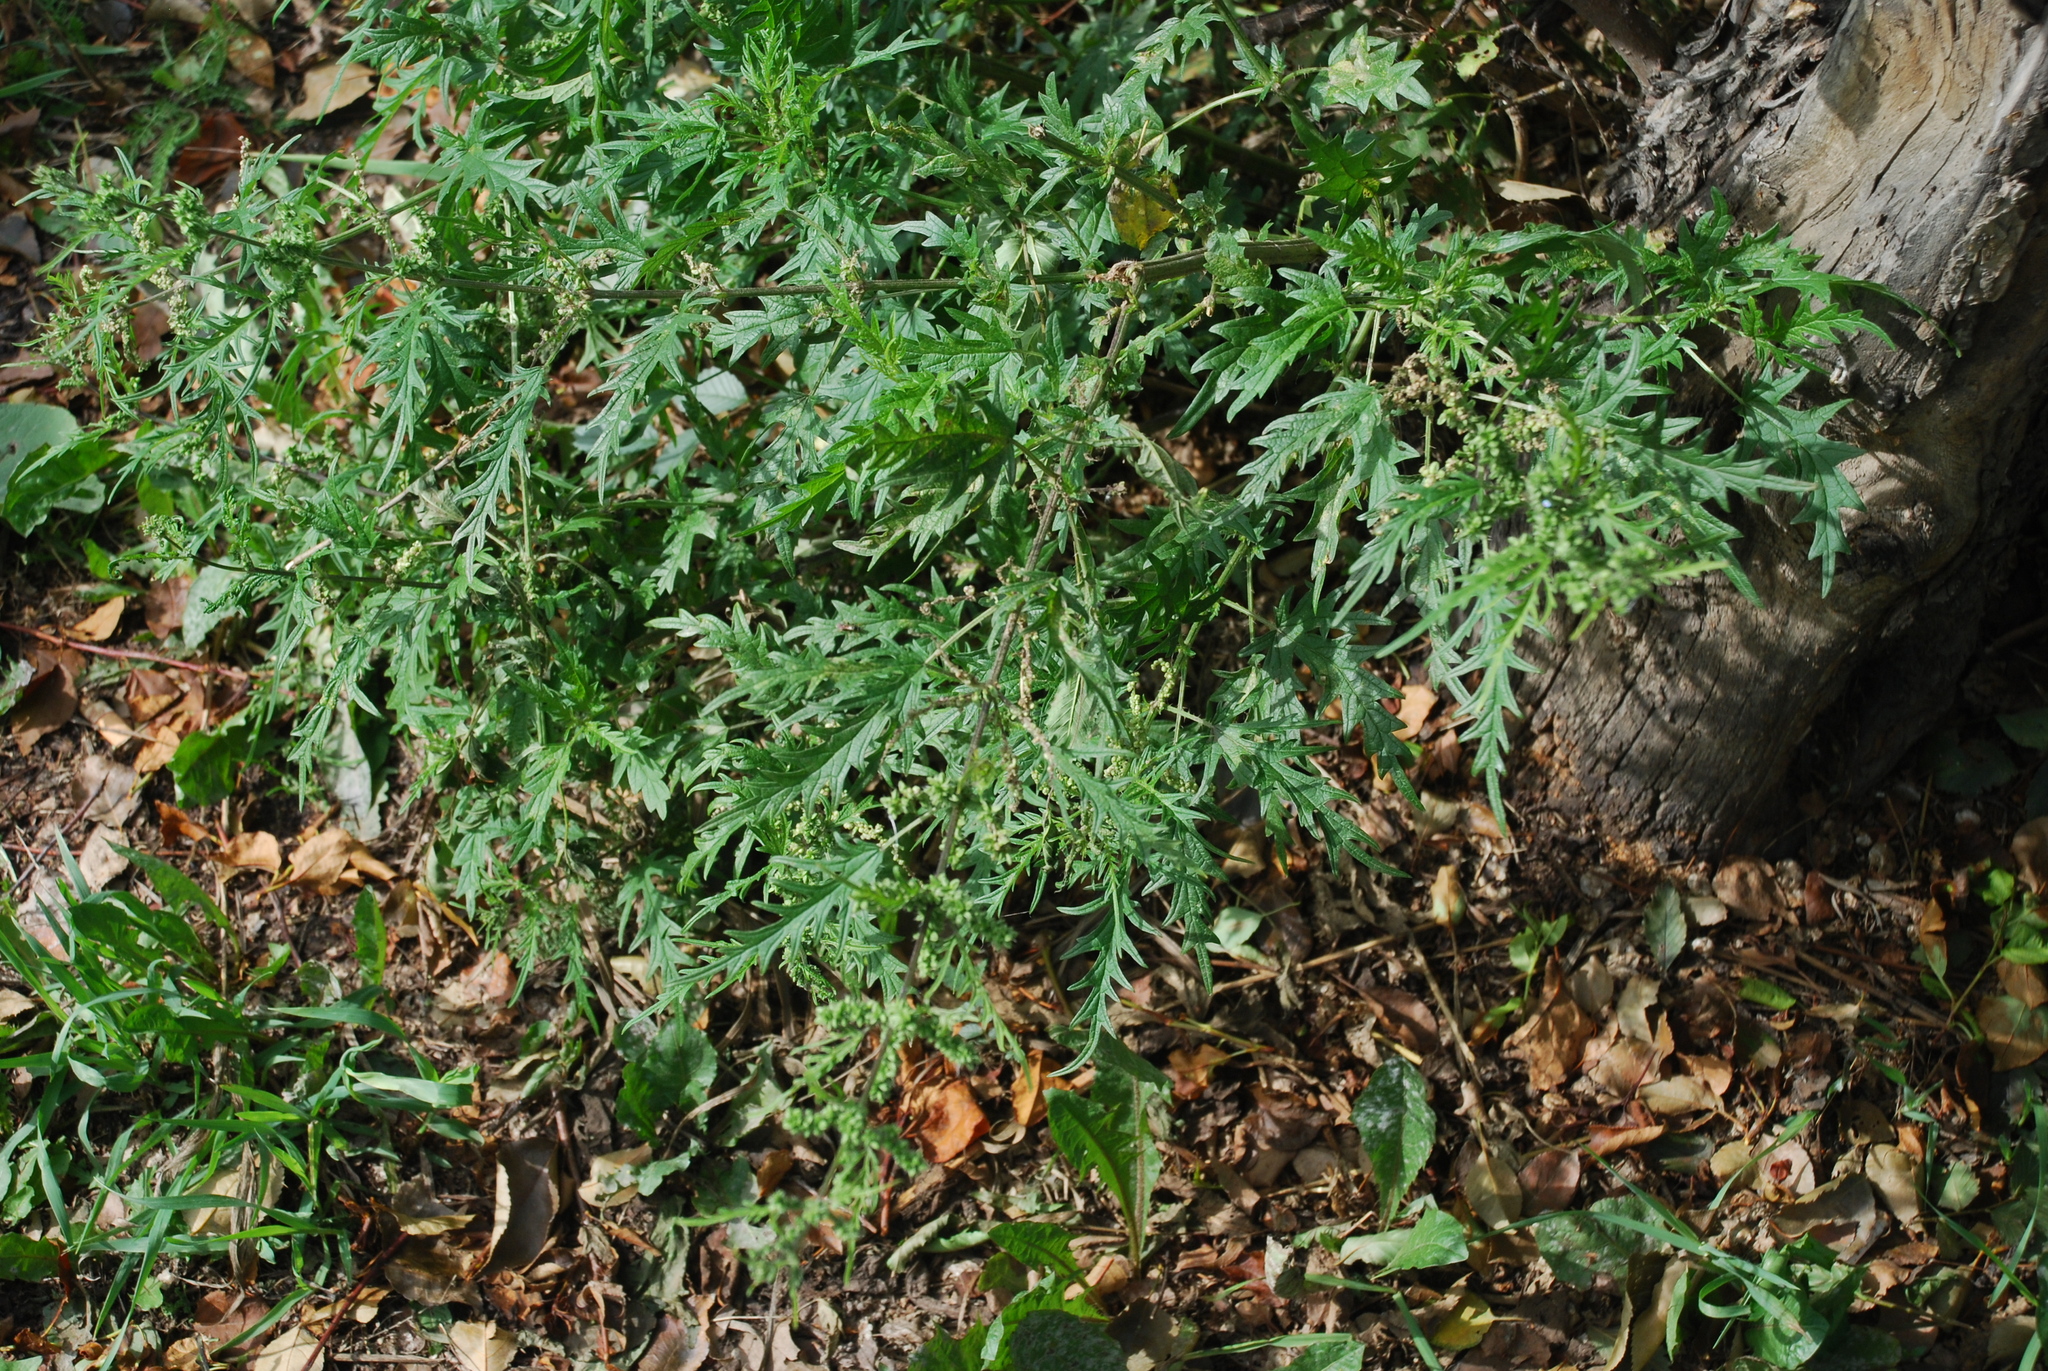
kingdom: Plantae
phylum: Tracheophyta
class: Magnoliopsida
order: Rosales
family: Urticaceae
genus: Urtica
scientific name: Urtica cannabina
